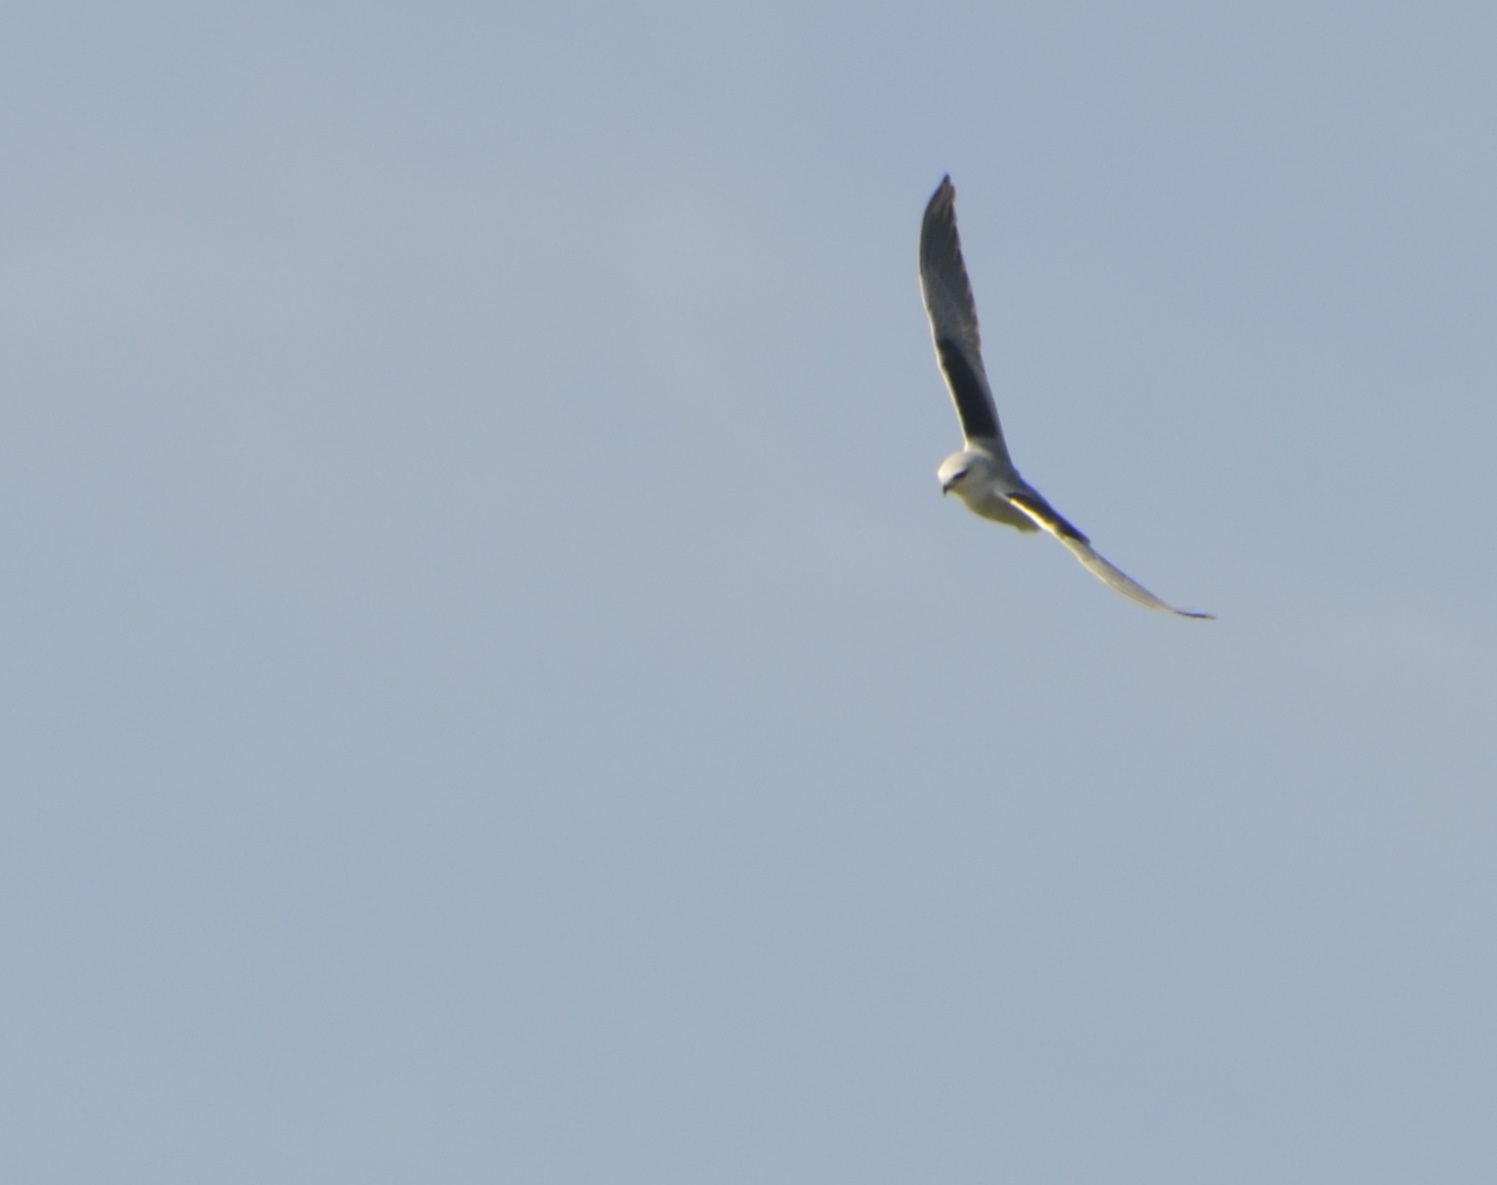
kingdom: Animalia
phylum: Chordata
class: Aves
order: Accipitriformes
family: Accipitridae
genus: Elanus
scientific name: Elanus caeruleus
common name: Black-winged kite
